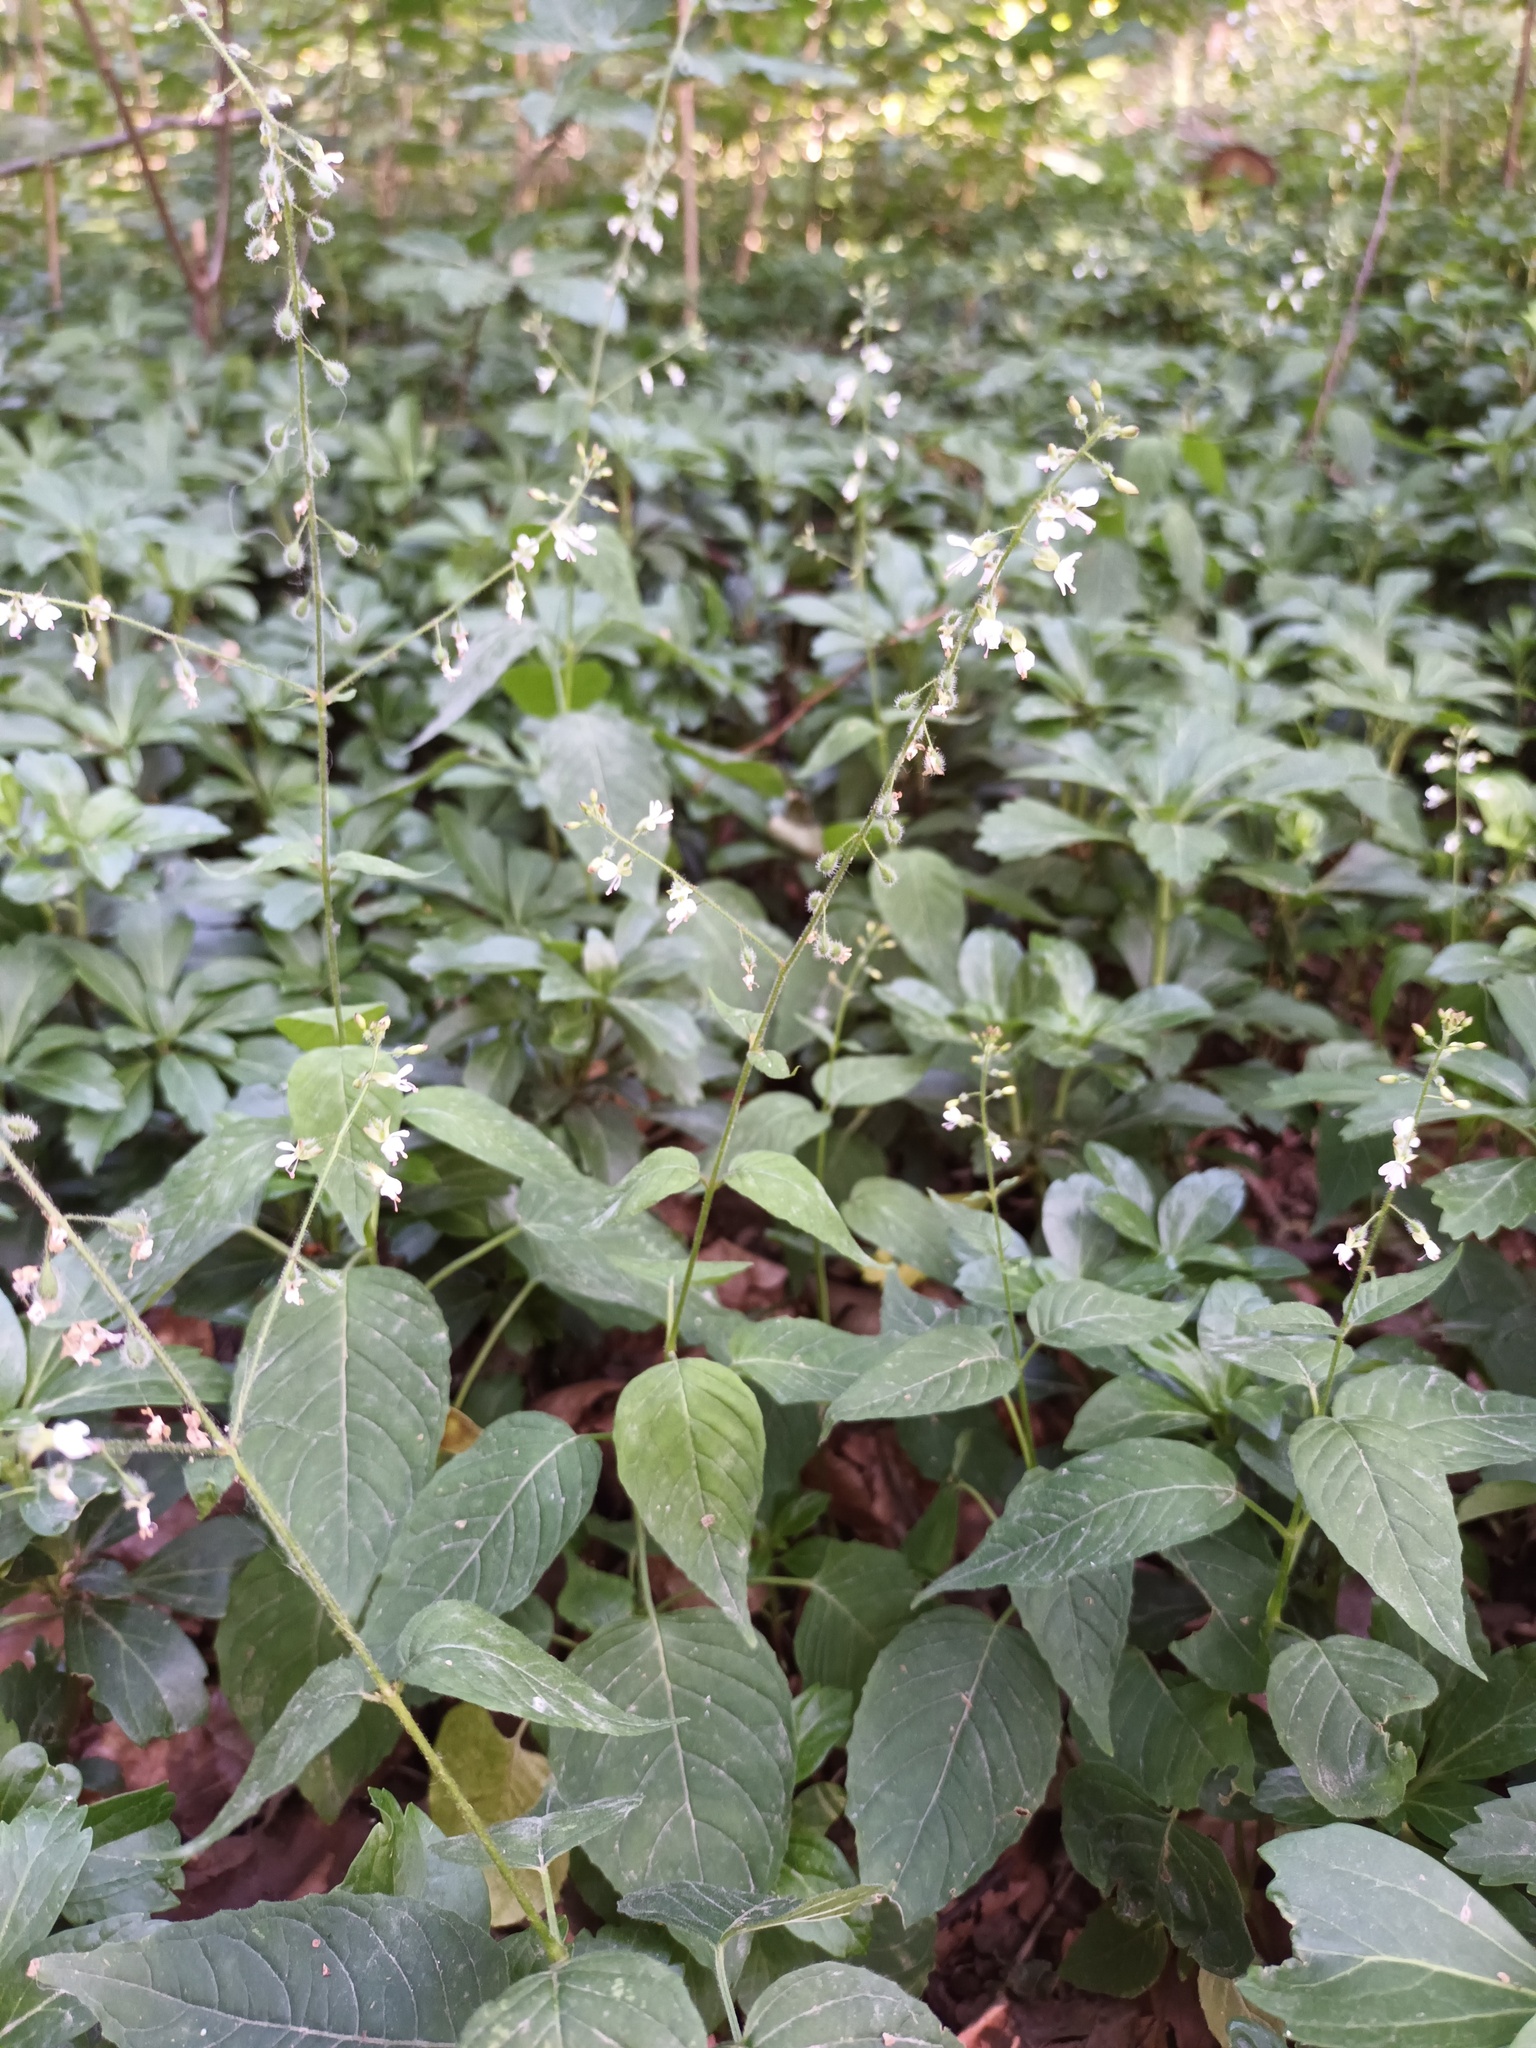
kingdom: Plantae
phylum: Tracheophyta
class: Magnoliopsida
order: Myrtales
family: Onagraceae
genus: Circaea
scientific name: Circaea lutetiana
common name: Enchanter's-nightshade
